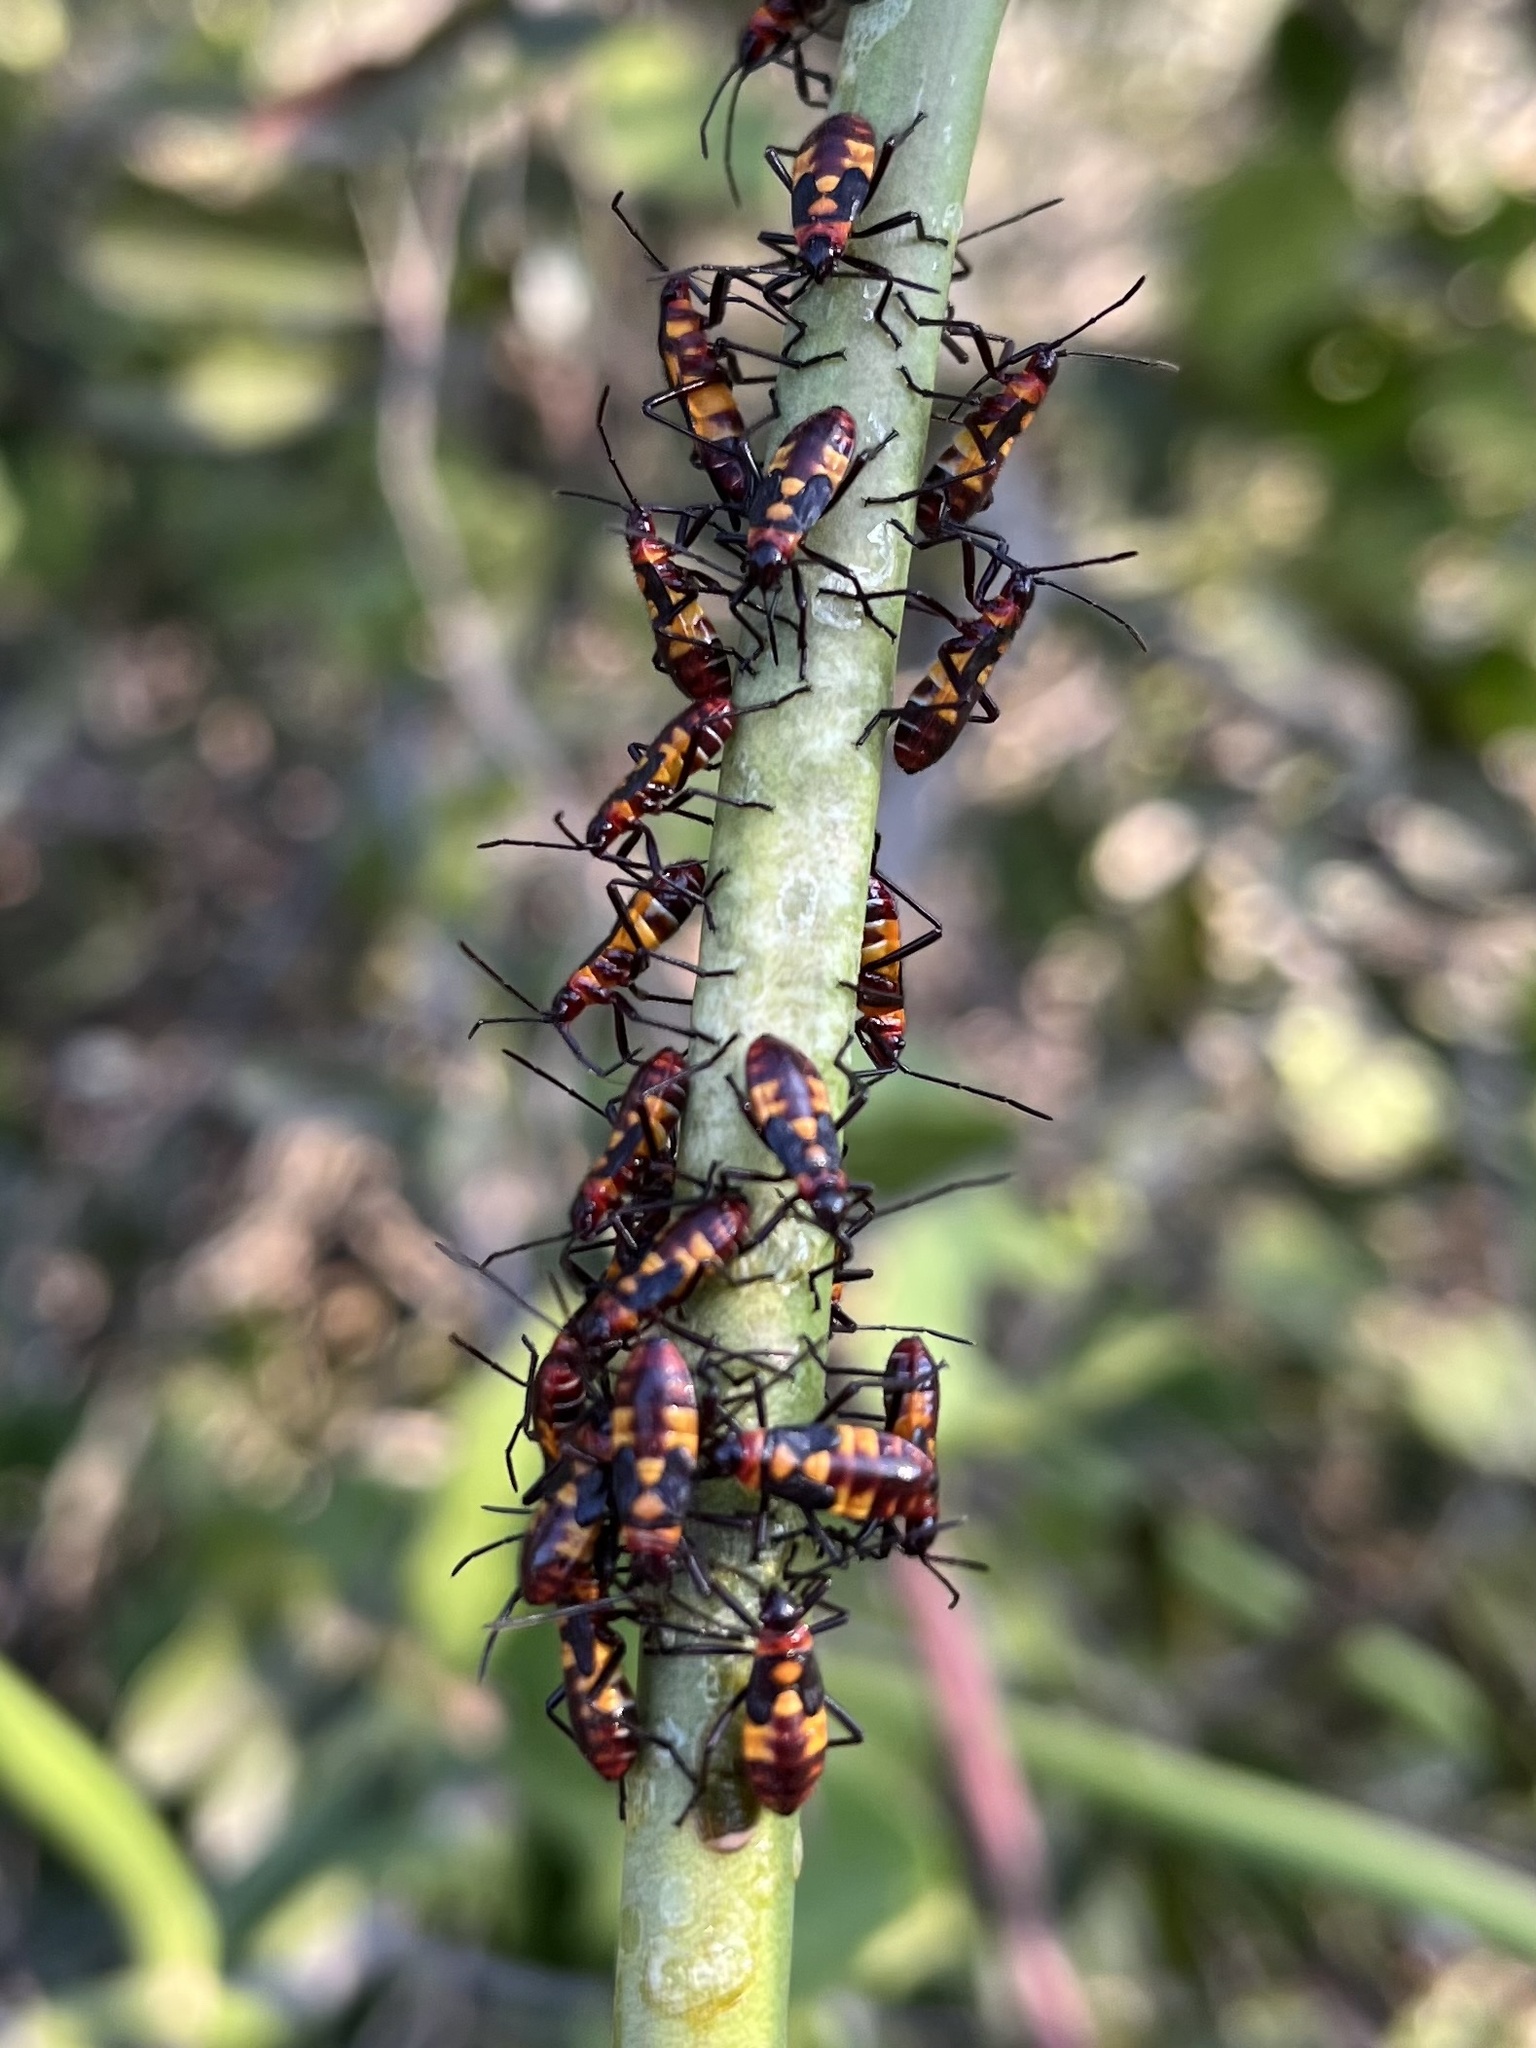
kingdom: Animalia
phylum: Arthropoda
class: Insecta
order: Hemiptera
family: Lygaeidae
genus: Oncopeltus
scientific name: Oncopeltus famelicus
